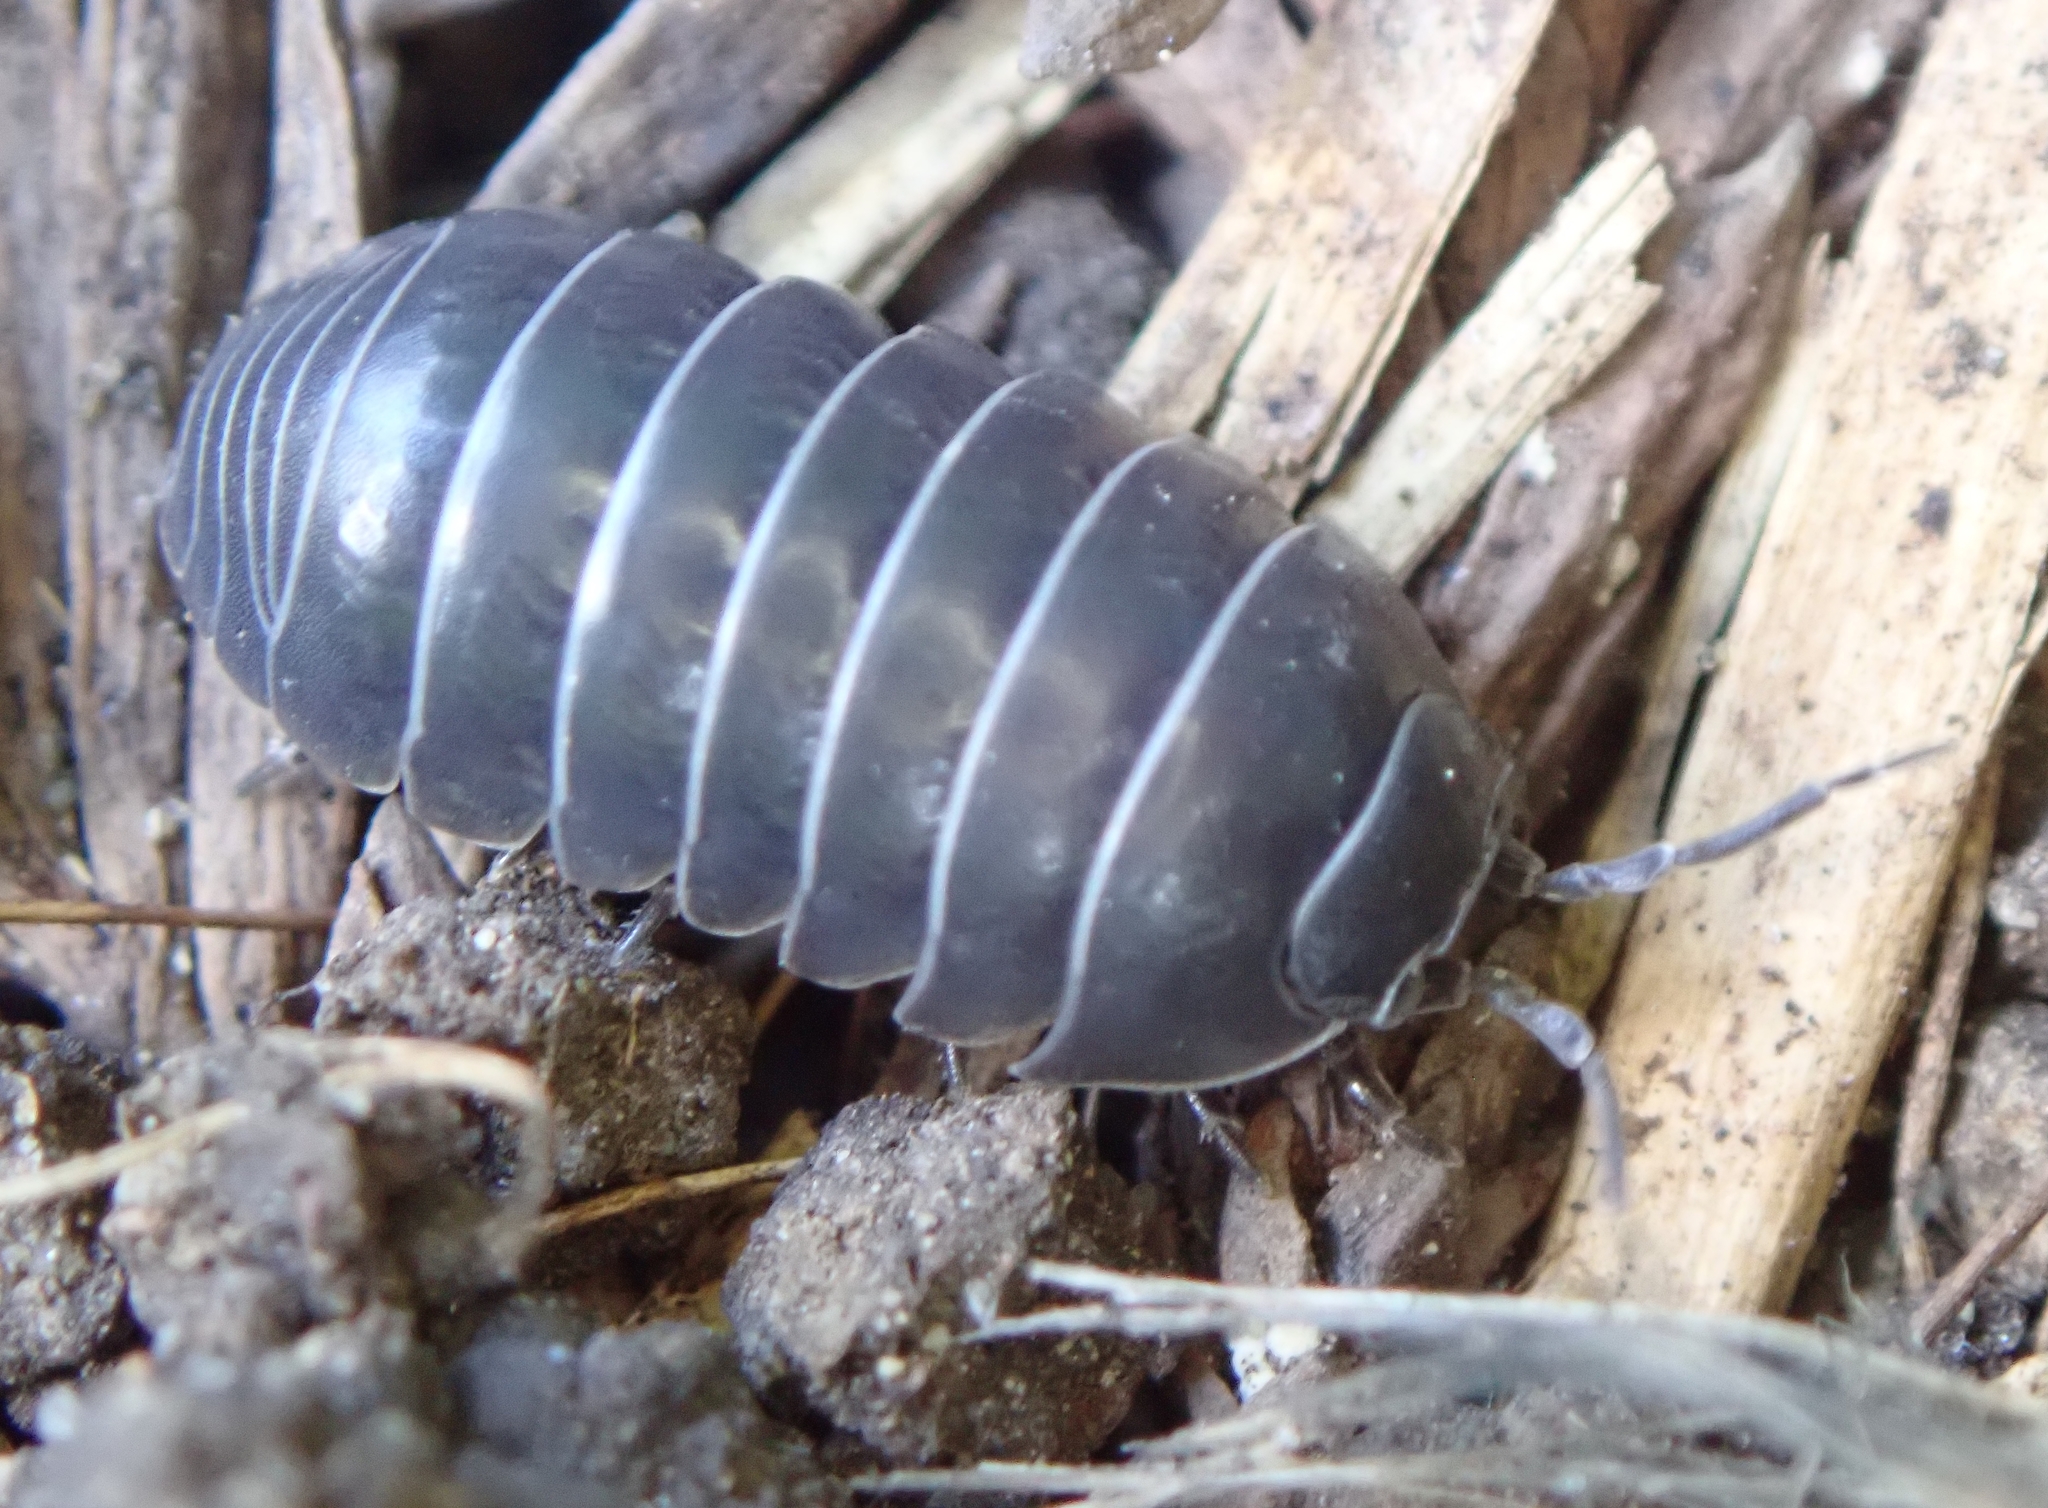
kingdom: Animalia
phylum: Arthropoda
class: Malacostraca
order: Isopoda
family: Armadillidiidae
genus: Armadillidium
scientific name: Armadillidium vulgare
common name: Common pill woodlouse
